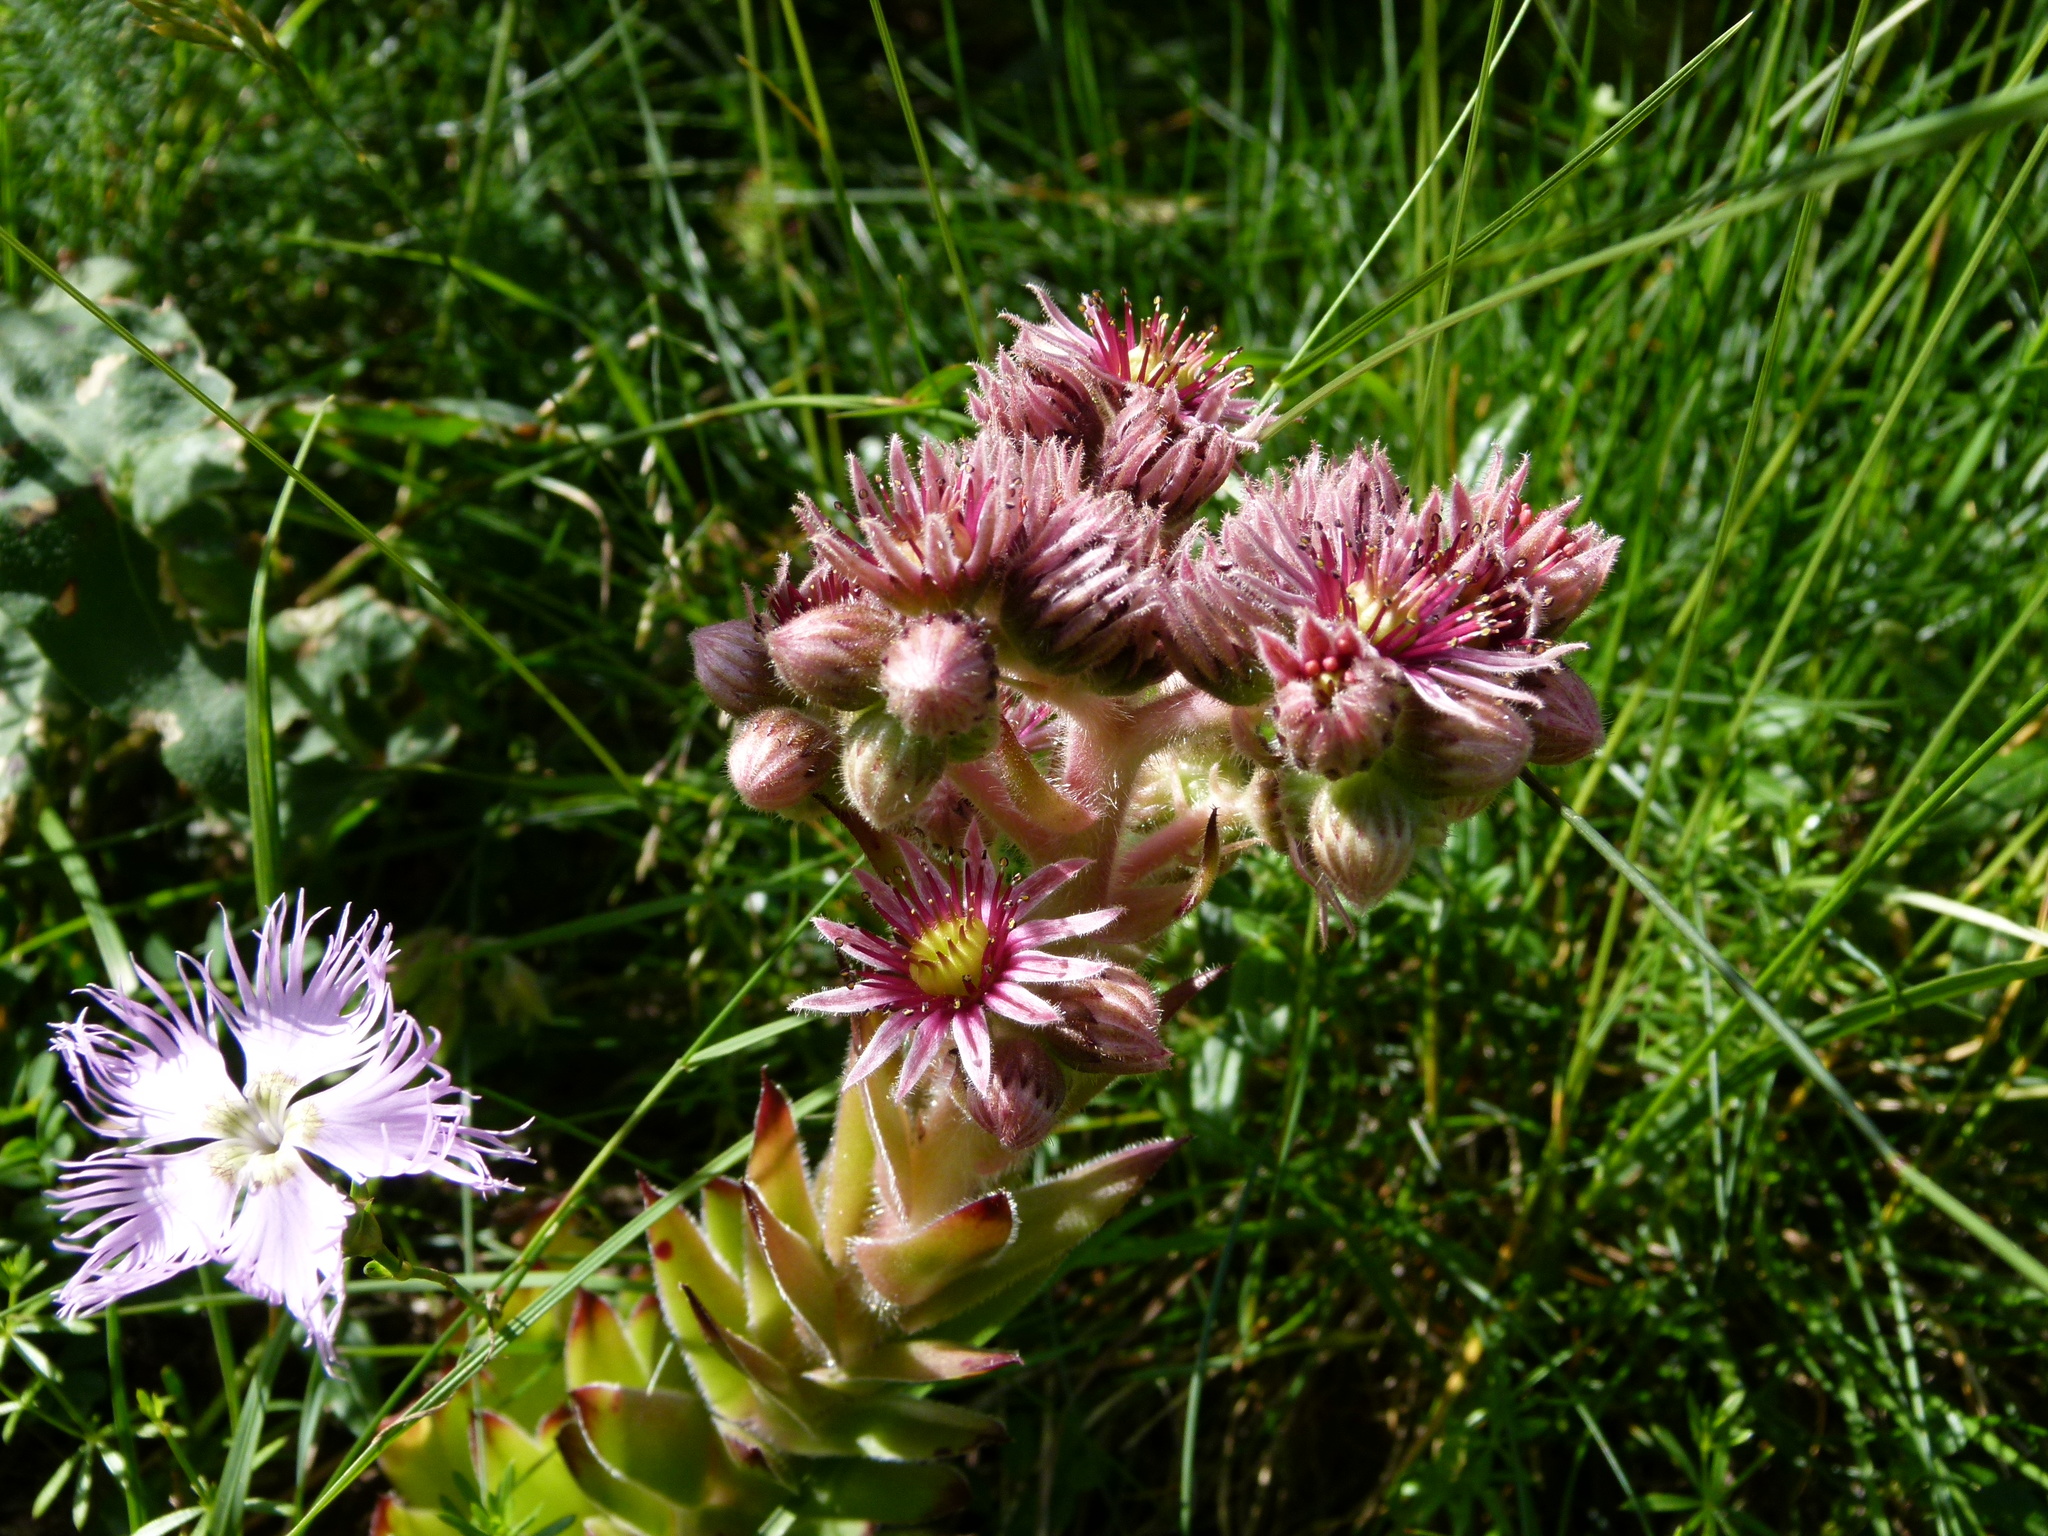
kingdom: Plantae
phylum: Tracheophyta
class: Magnoliopsida
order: Saxifragales
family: Crassulaceae
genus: Sempervivum
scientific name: Sempervivum tectorum
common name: House-leek
